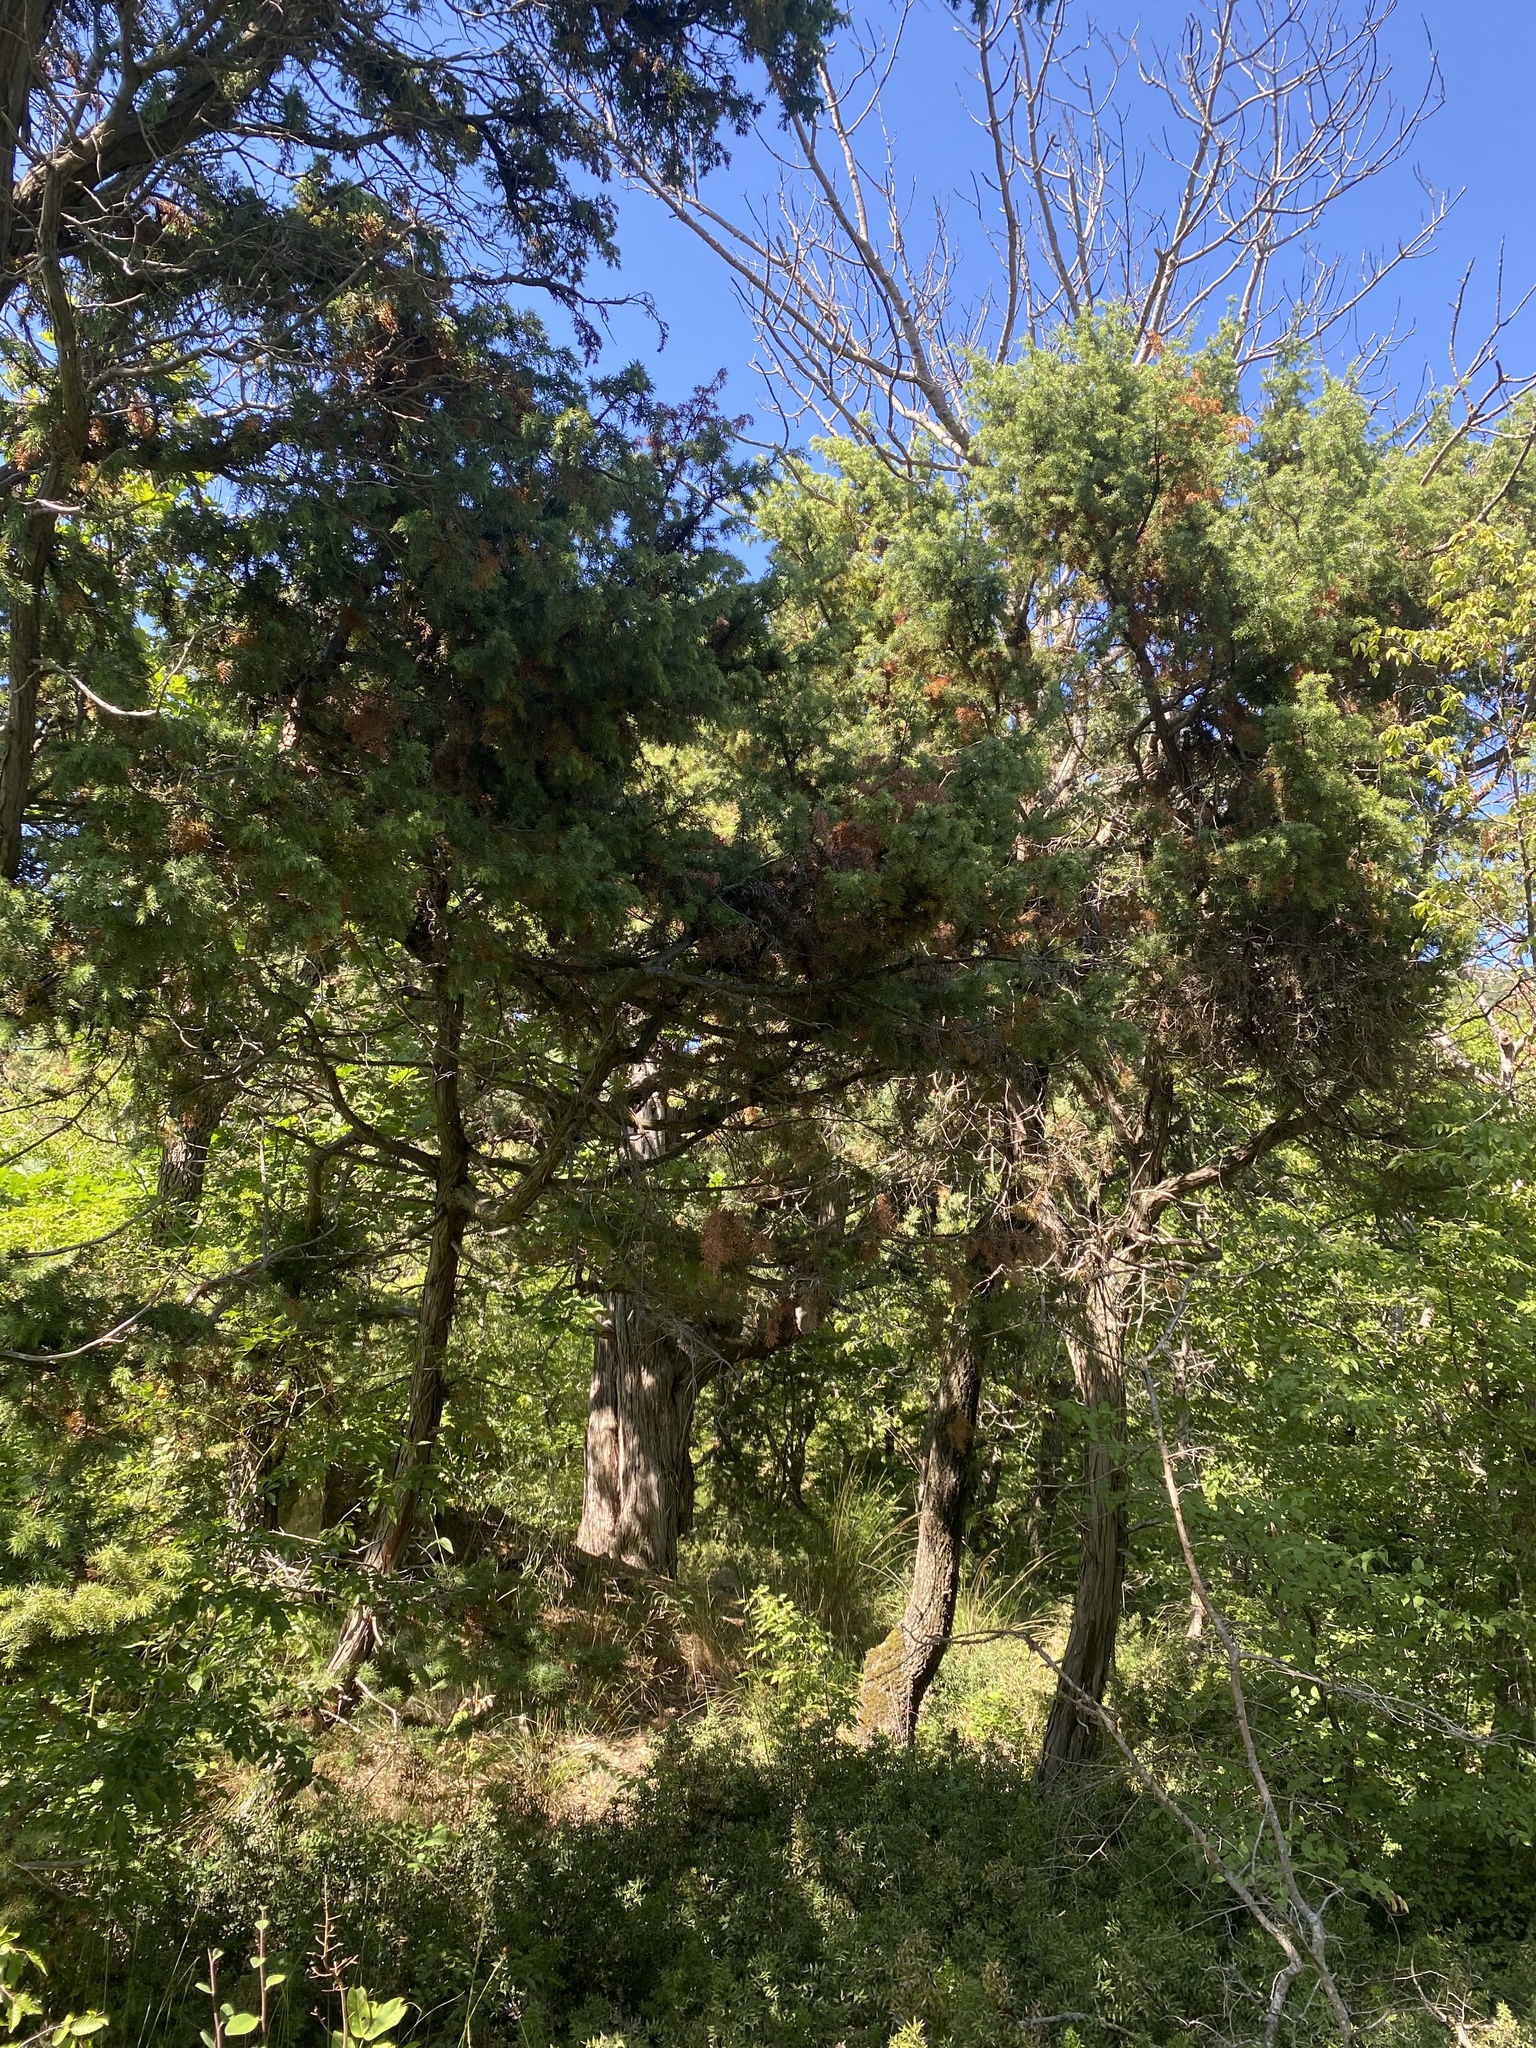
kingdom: Plantae
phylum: Tracheophyta
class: Pinopsida
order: Pinales
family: Cupressaceae
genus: Juniperus
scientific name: Juniperus oxycedrus
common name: Prickly juniper
